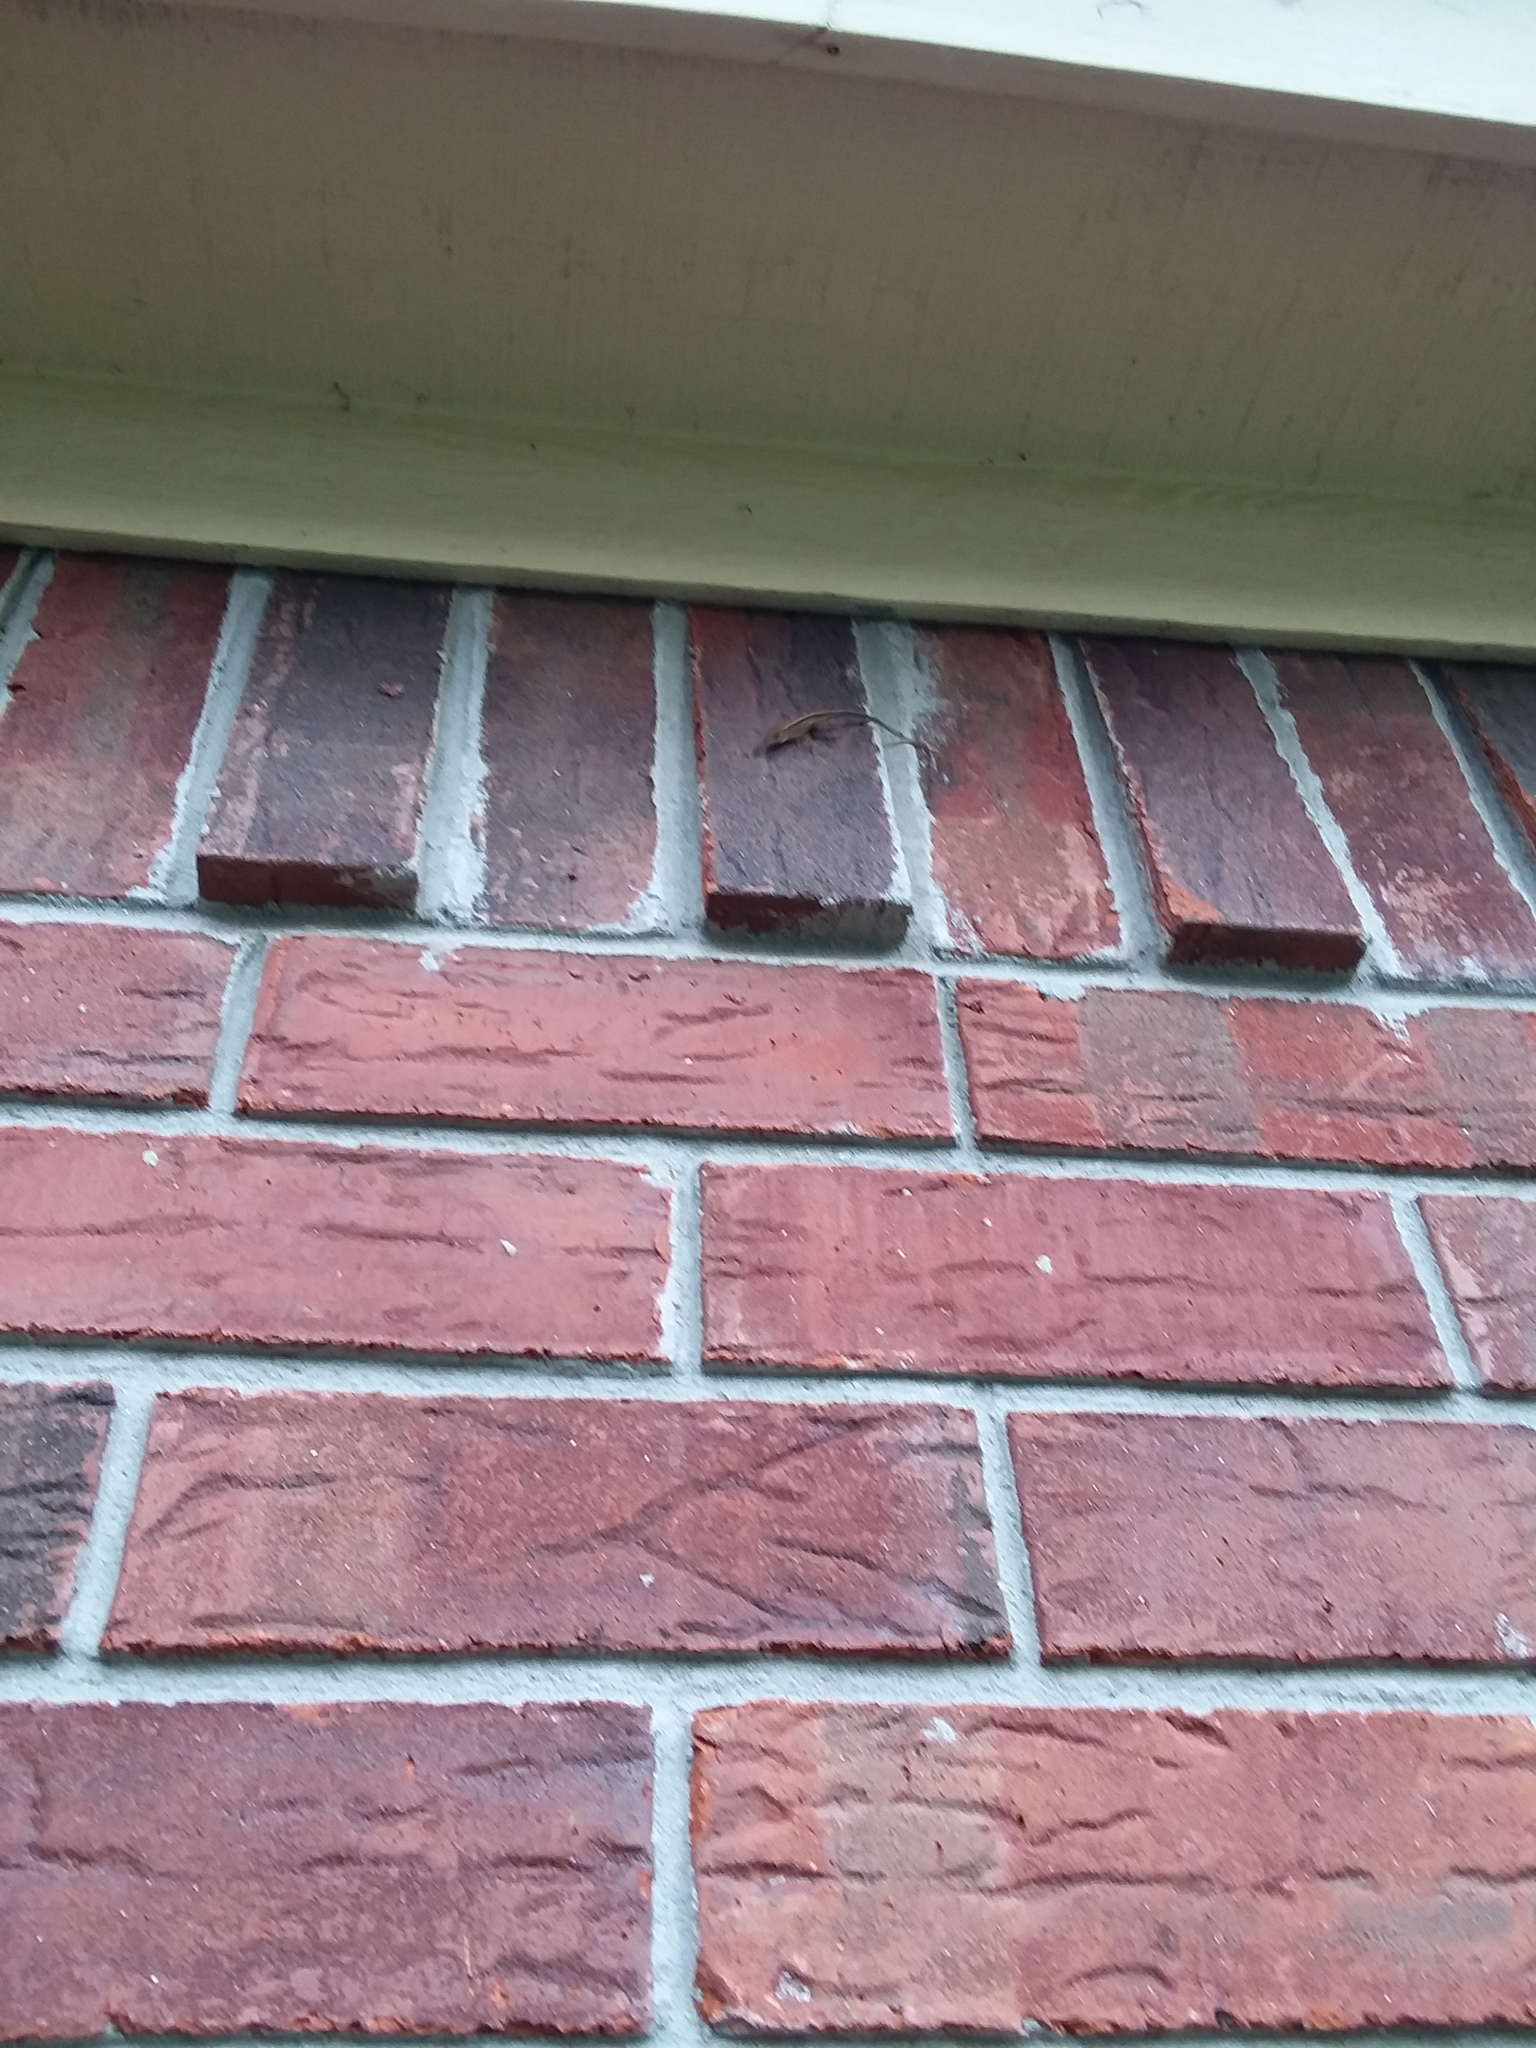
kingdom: Animalia
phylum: Chordata
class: Squamata
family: Dactyloidae
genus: Anolis
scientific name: Anolis sagrei
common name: Brown anole
